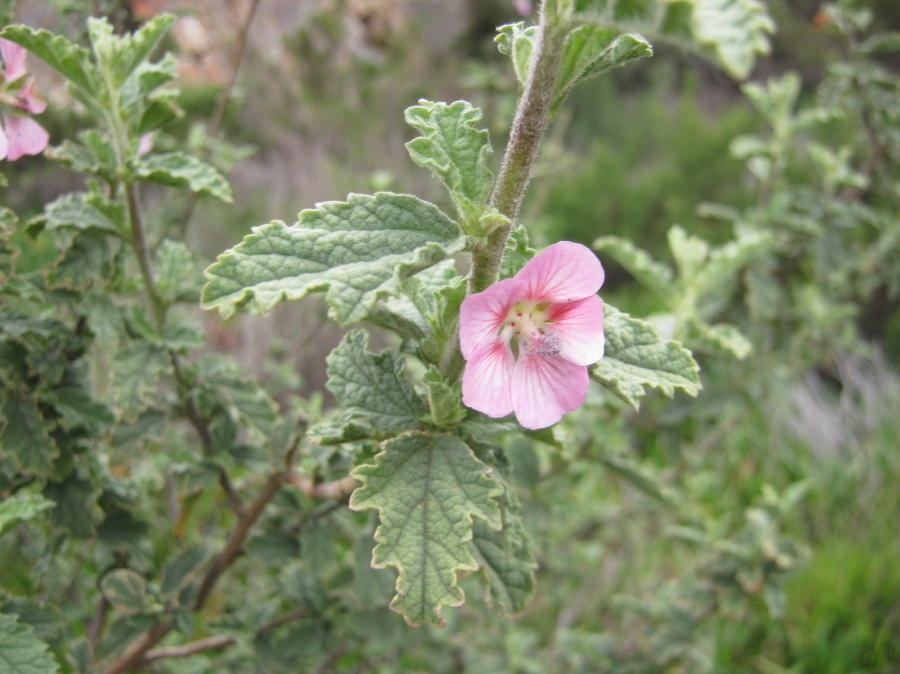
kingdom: Plantae
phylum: Tracheophyta
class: Magnoliopsida
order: Malvales
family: Malvaceae
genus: Anisodontea
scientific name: Anisodontea scabrosa
